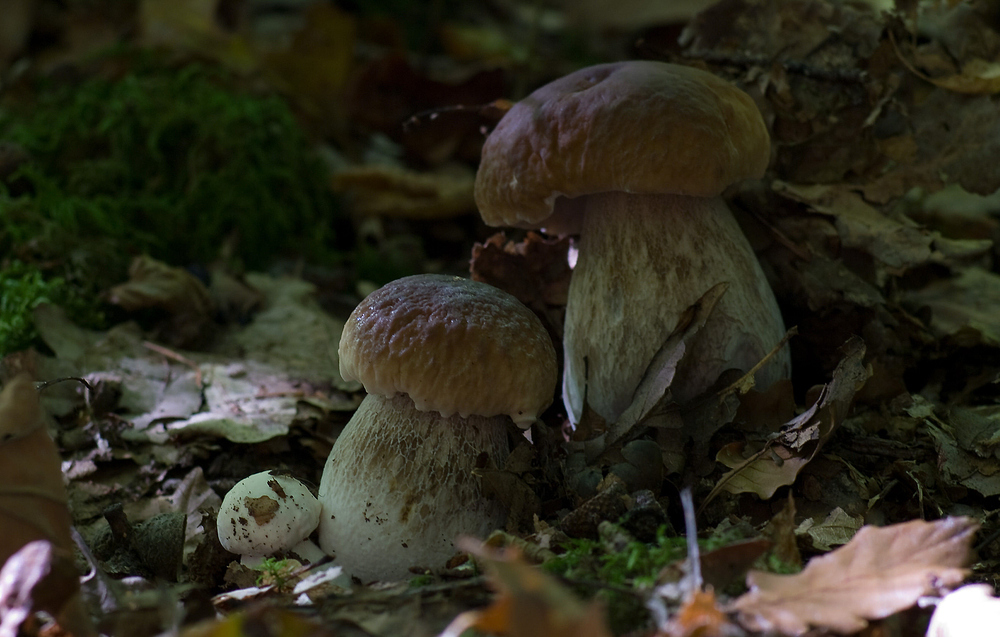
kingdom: Fungi
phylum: Basidiomycota
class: Agaricomycetes
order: Boletales
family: Boletaceae
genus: Boletus
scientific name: Boletus edulis
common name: Cep
